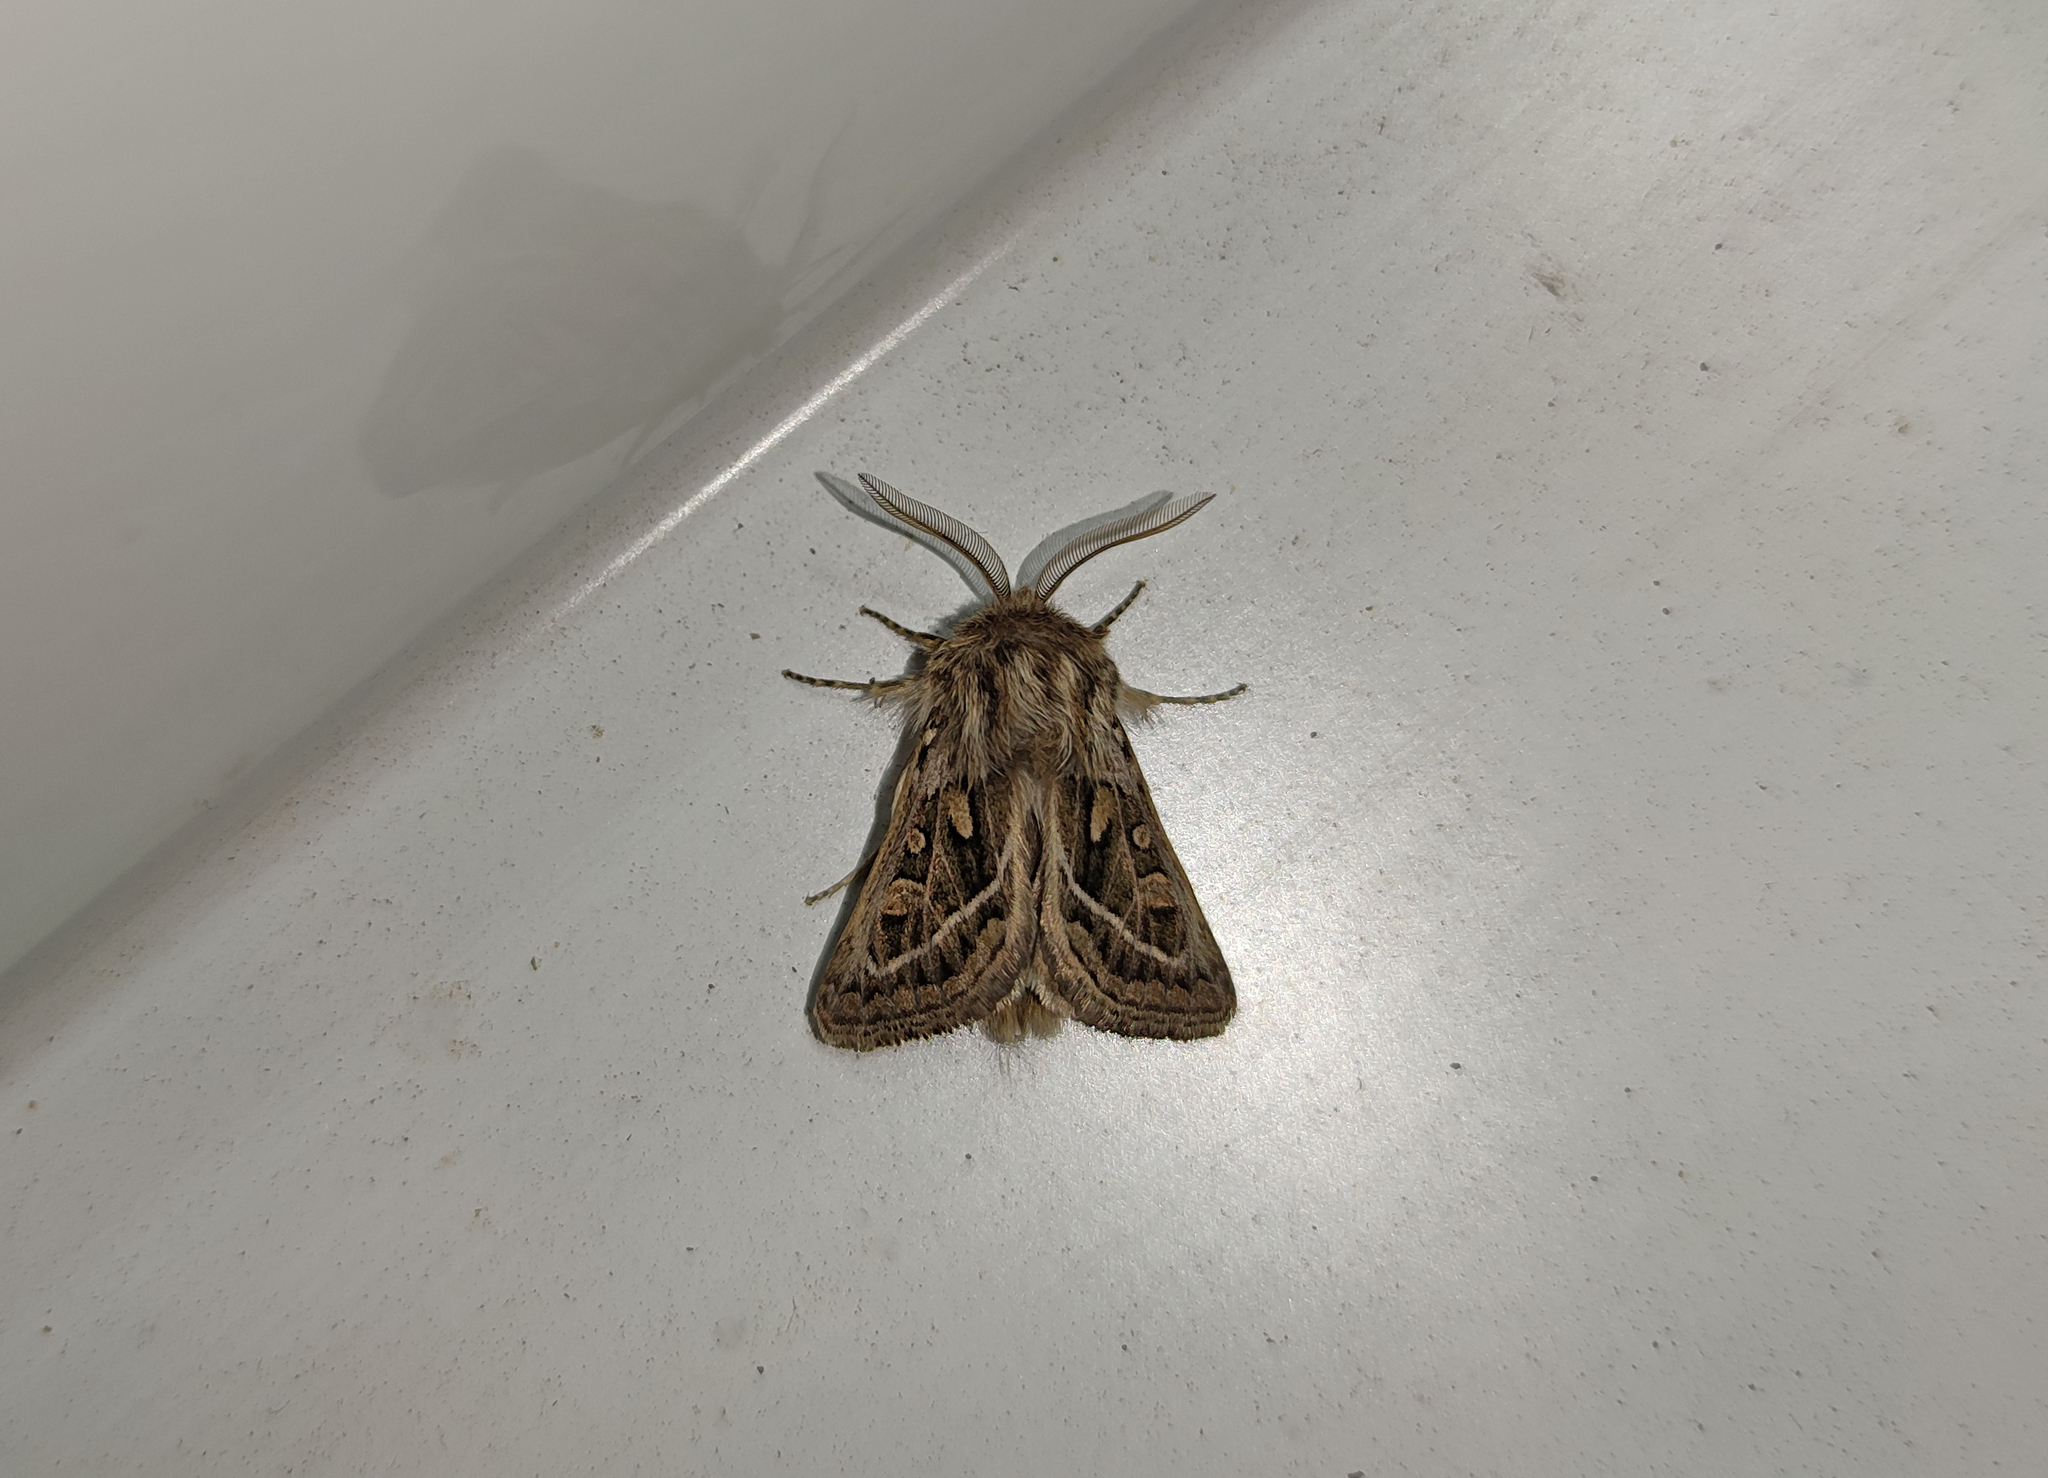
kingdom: Animalia
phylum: Arthropoda
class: Insecta
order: Lepidoptera
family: Noctuidae
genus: Ulochlaena
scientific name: Ulochlaena hirta
